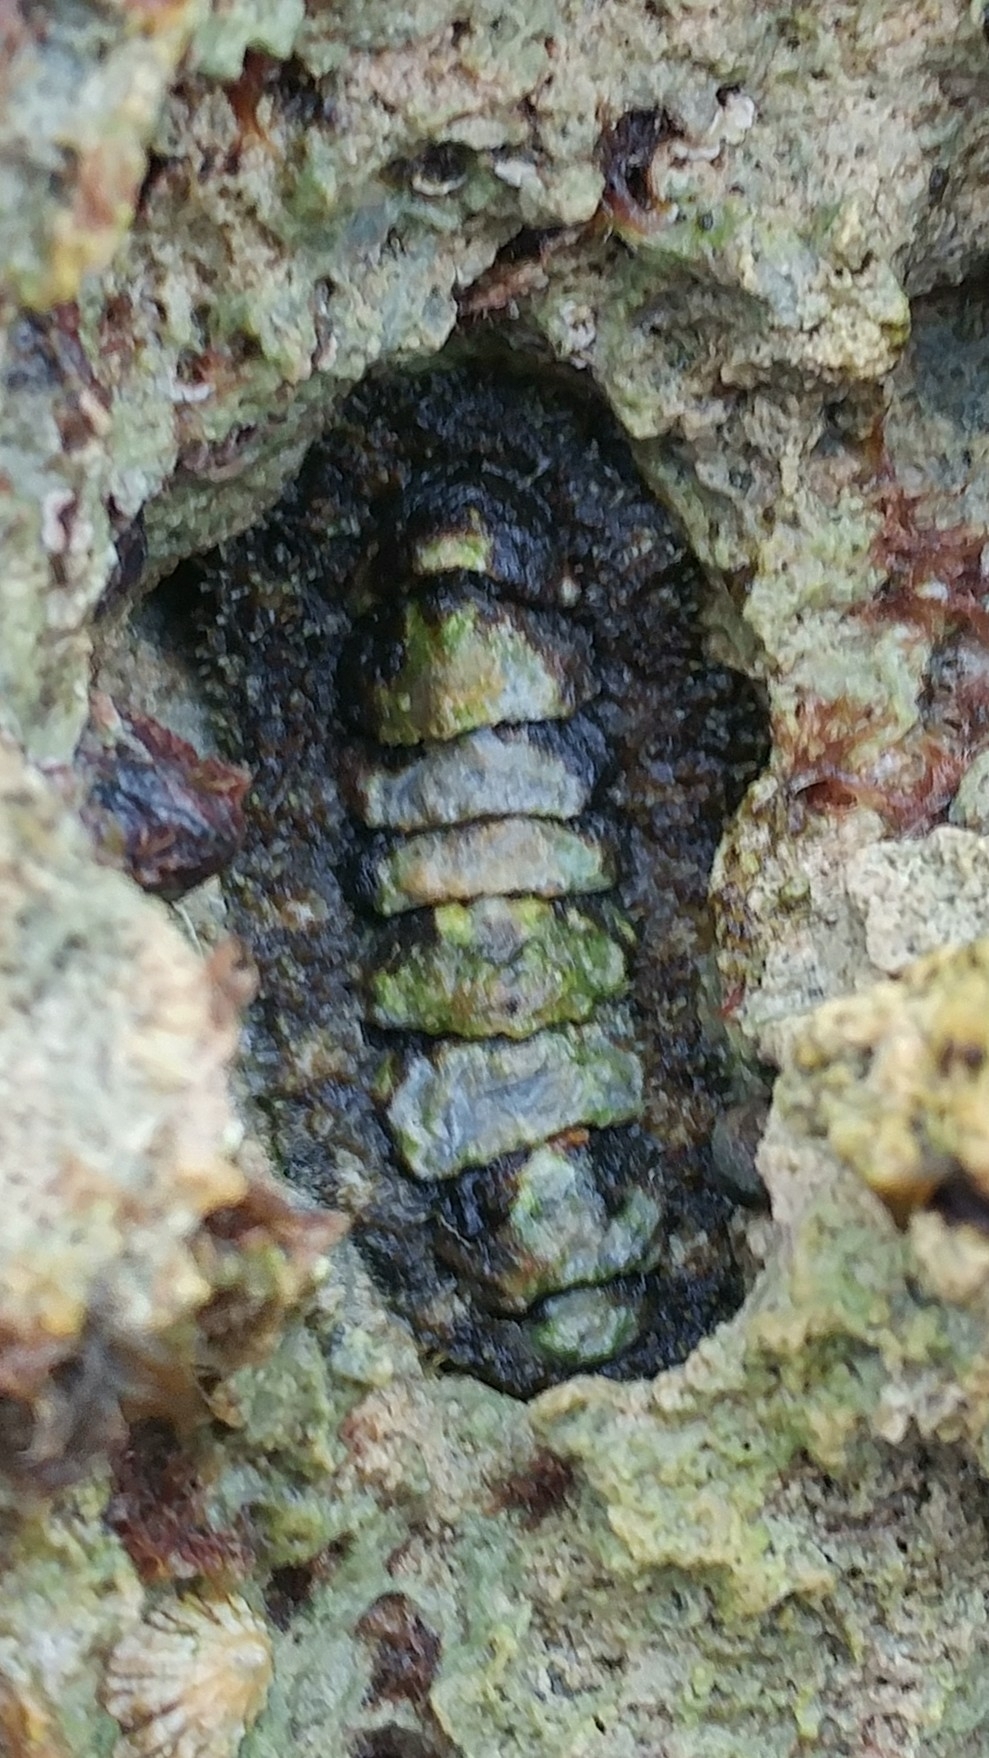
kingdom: Animalia
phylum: Mollusca
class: Polyplacophora
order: Chitonida
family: Tonicellidae
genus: Nuttallina
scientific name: Nuttallina californica
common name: California nuttall chiton
